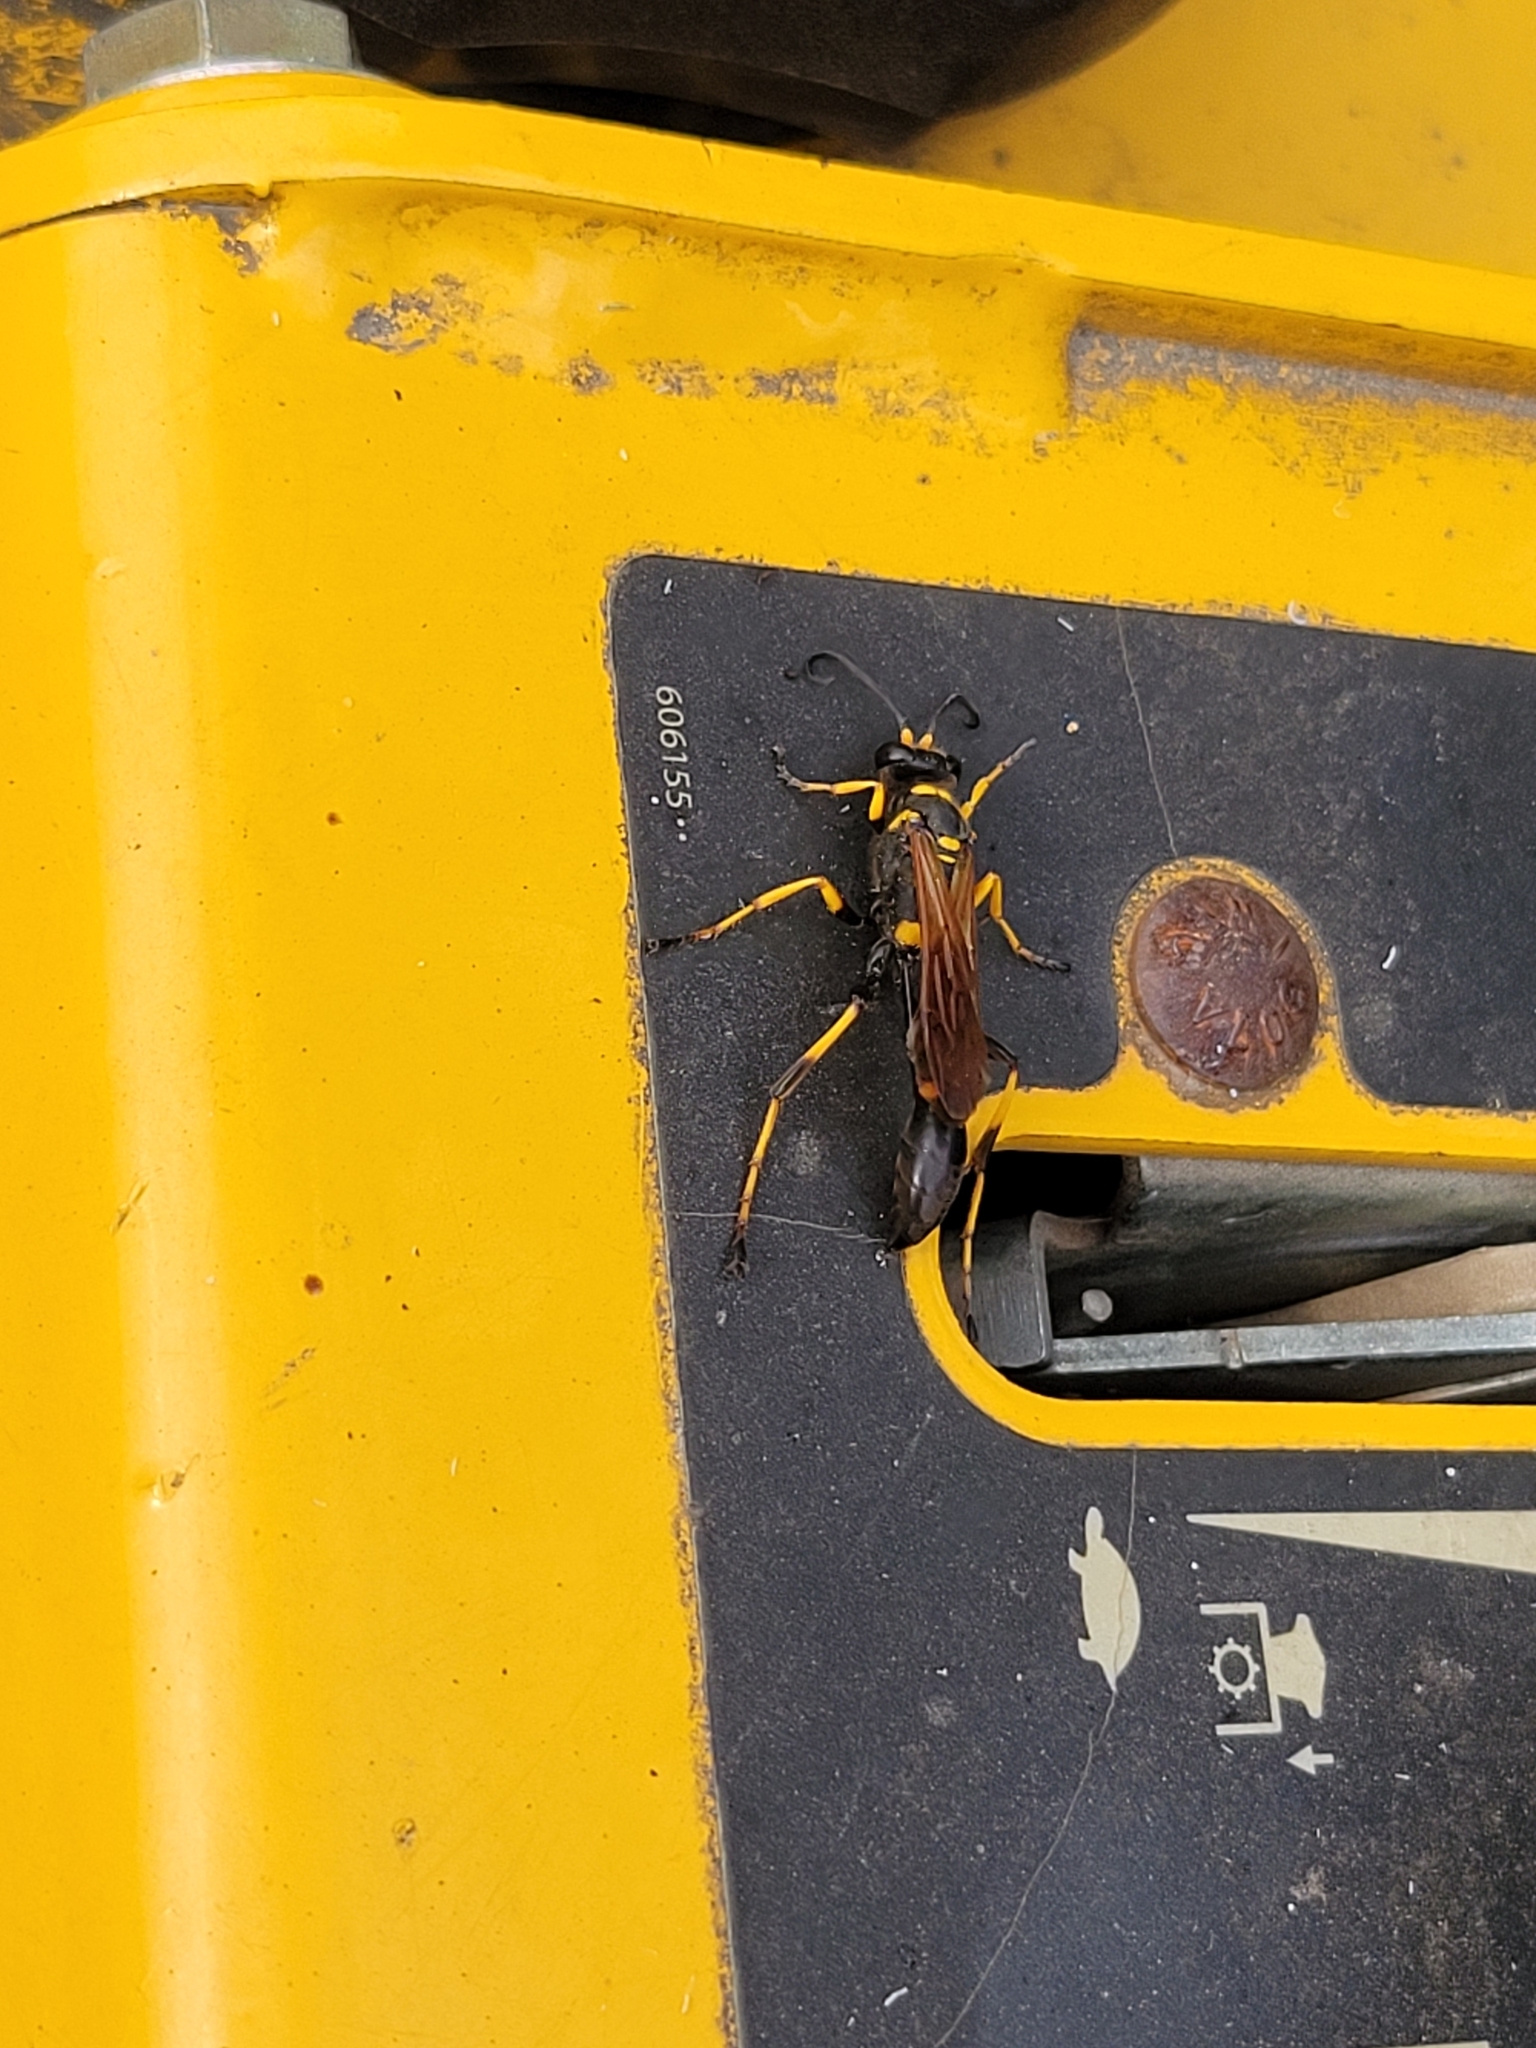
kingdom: Animalia
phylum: Arthropoda
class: Insecta
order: Hymenoptera
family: Sphecidae
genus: Sceliphron
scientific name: Sceliphron caementarium
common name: Mud dauber
